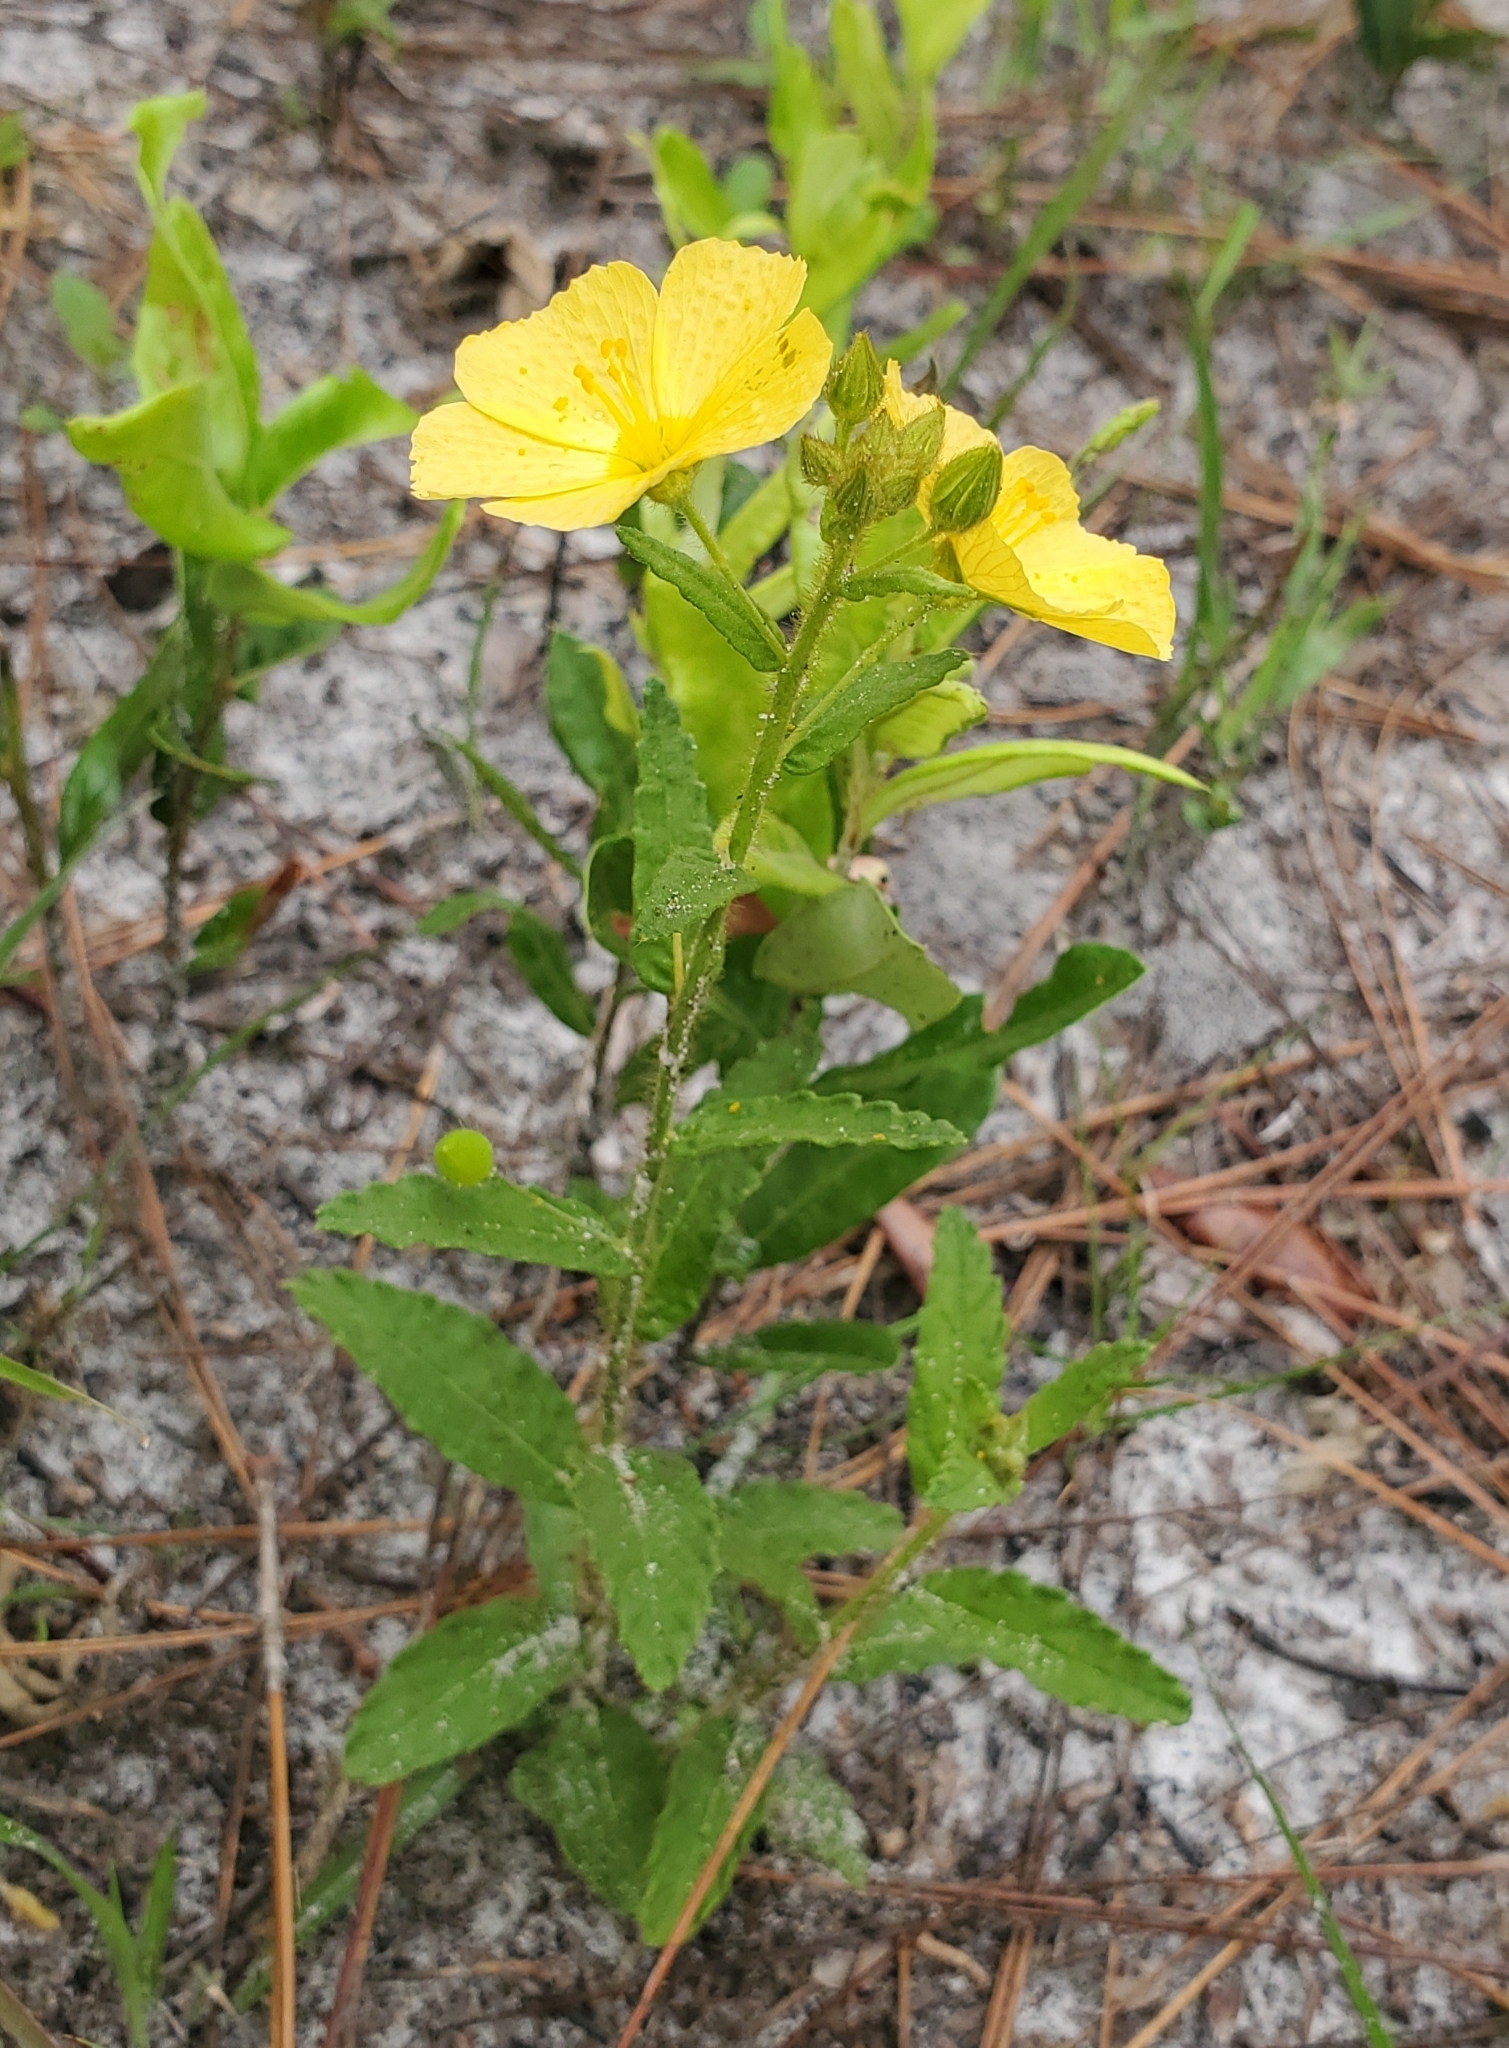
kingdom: Plantae
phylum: Tracheophyta
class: Magnoliopsida
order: Malpighiales
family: Turneraceae
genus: Piriqueta
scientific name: Piriqueta cistoides
